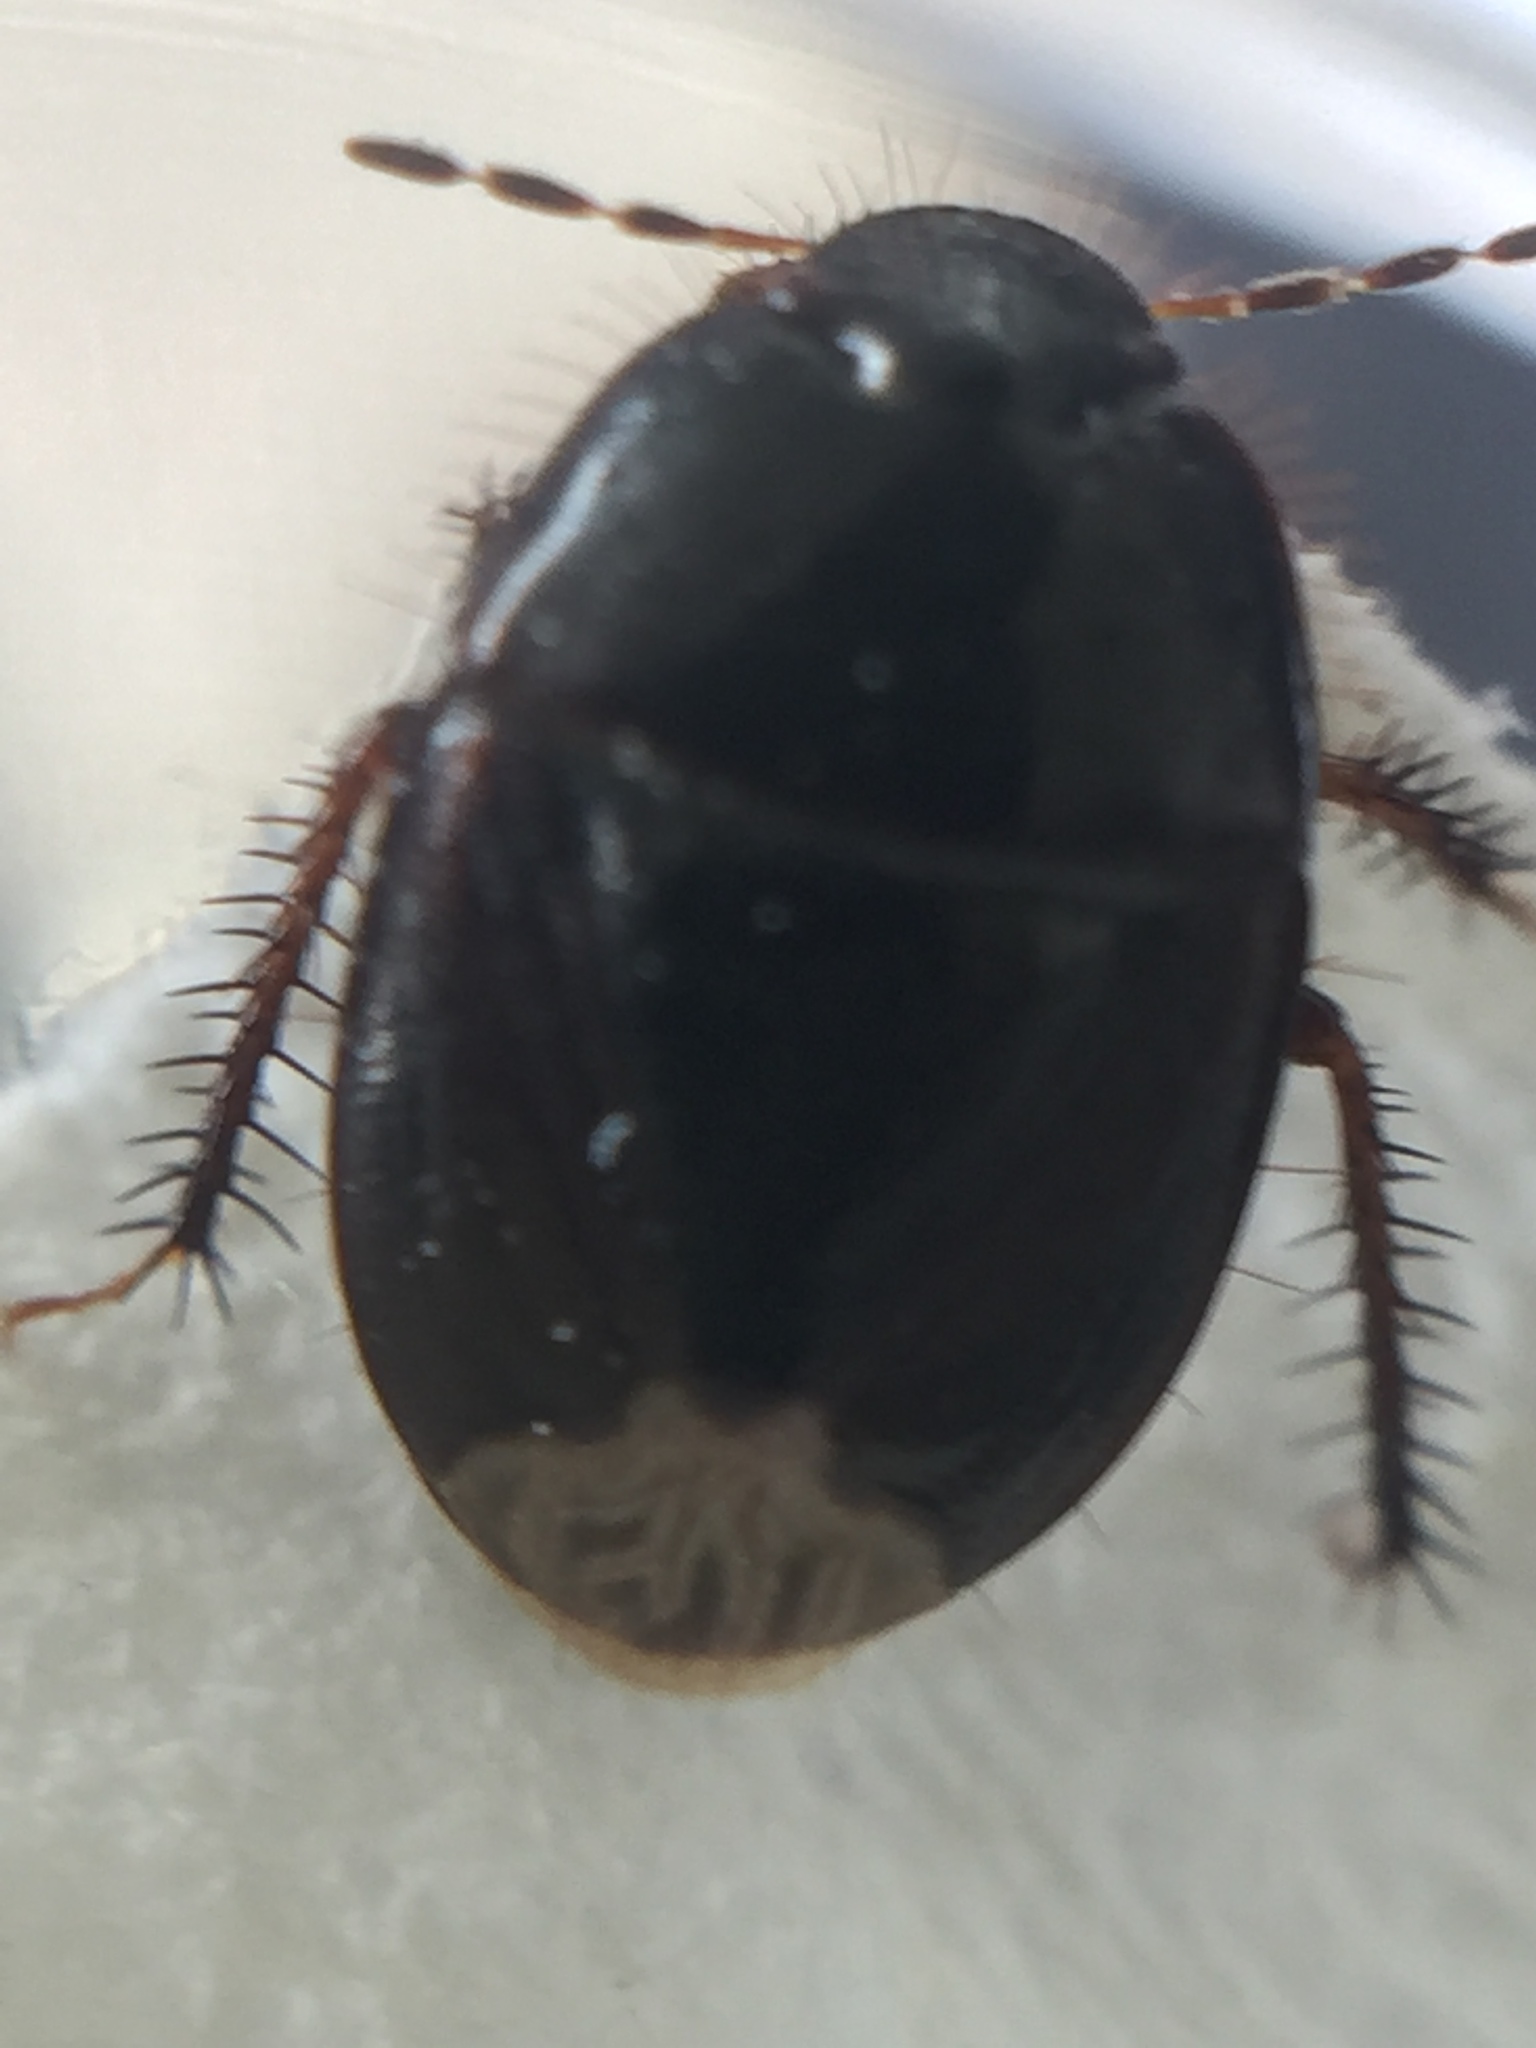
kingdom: Animalia
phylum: Arthropoda
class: Insecta
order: Hemiptera
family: Cydnidae
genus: Macroscytus
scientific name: Macroscytus australis
